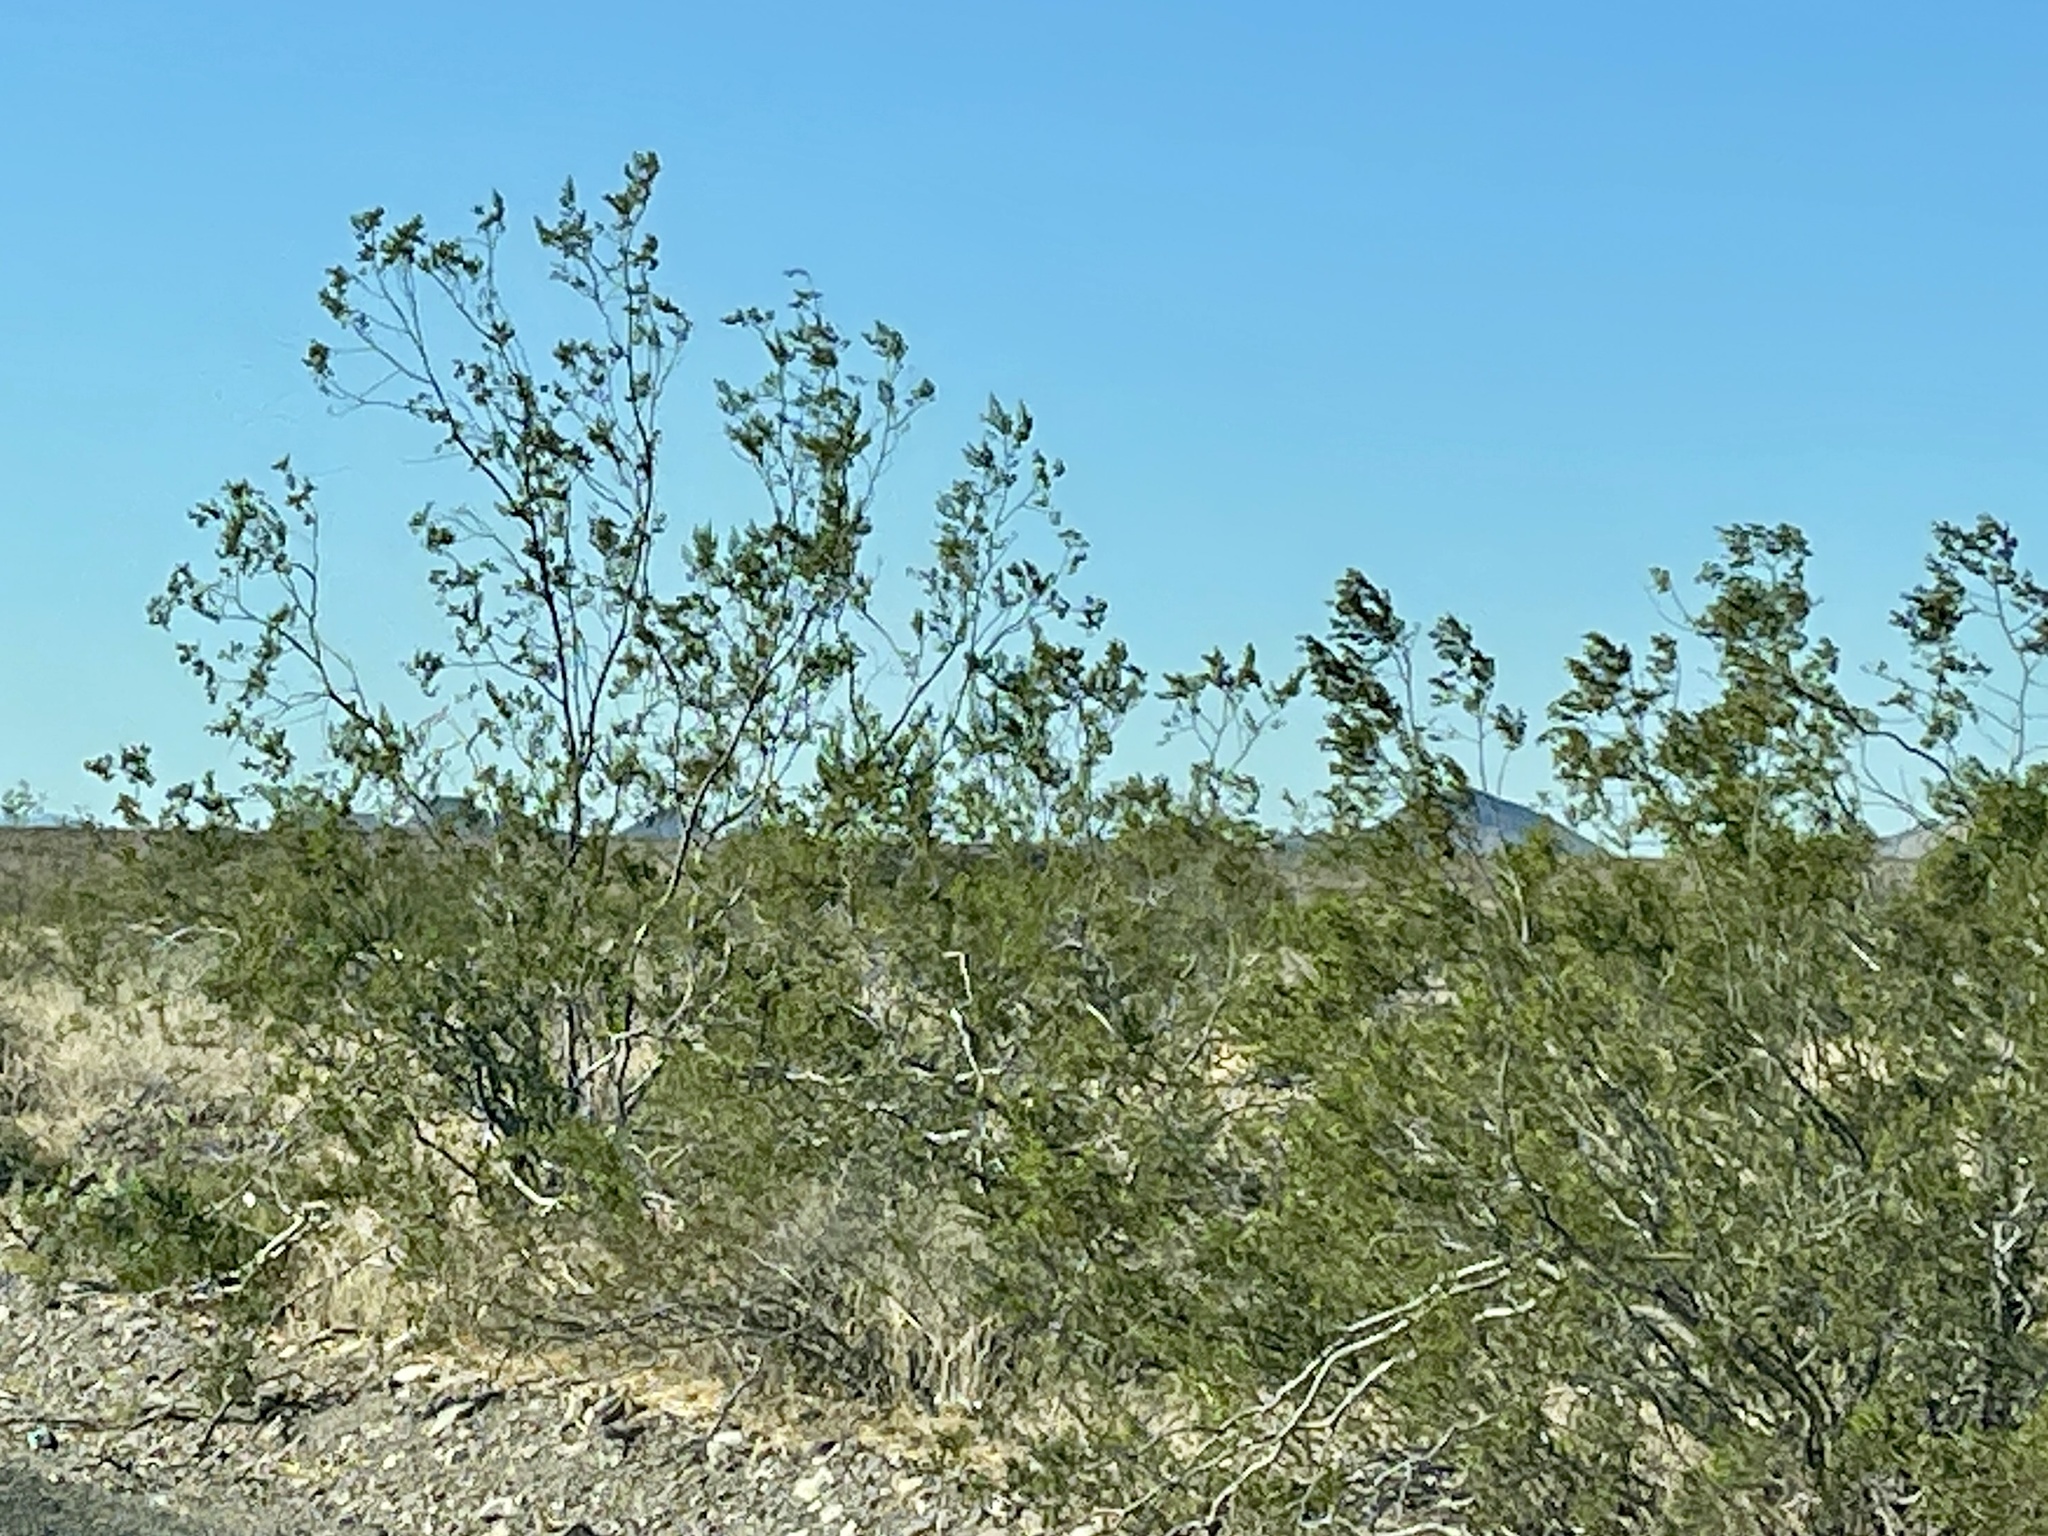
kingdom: Plantae
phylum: Tracheophyta
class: Magnoliopsida
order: Zygophyllales
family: Zygophyllaceae
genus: Larrea
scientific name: Larrea tridentata
